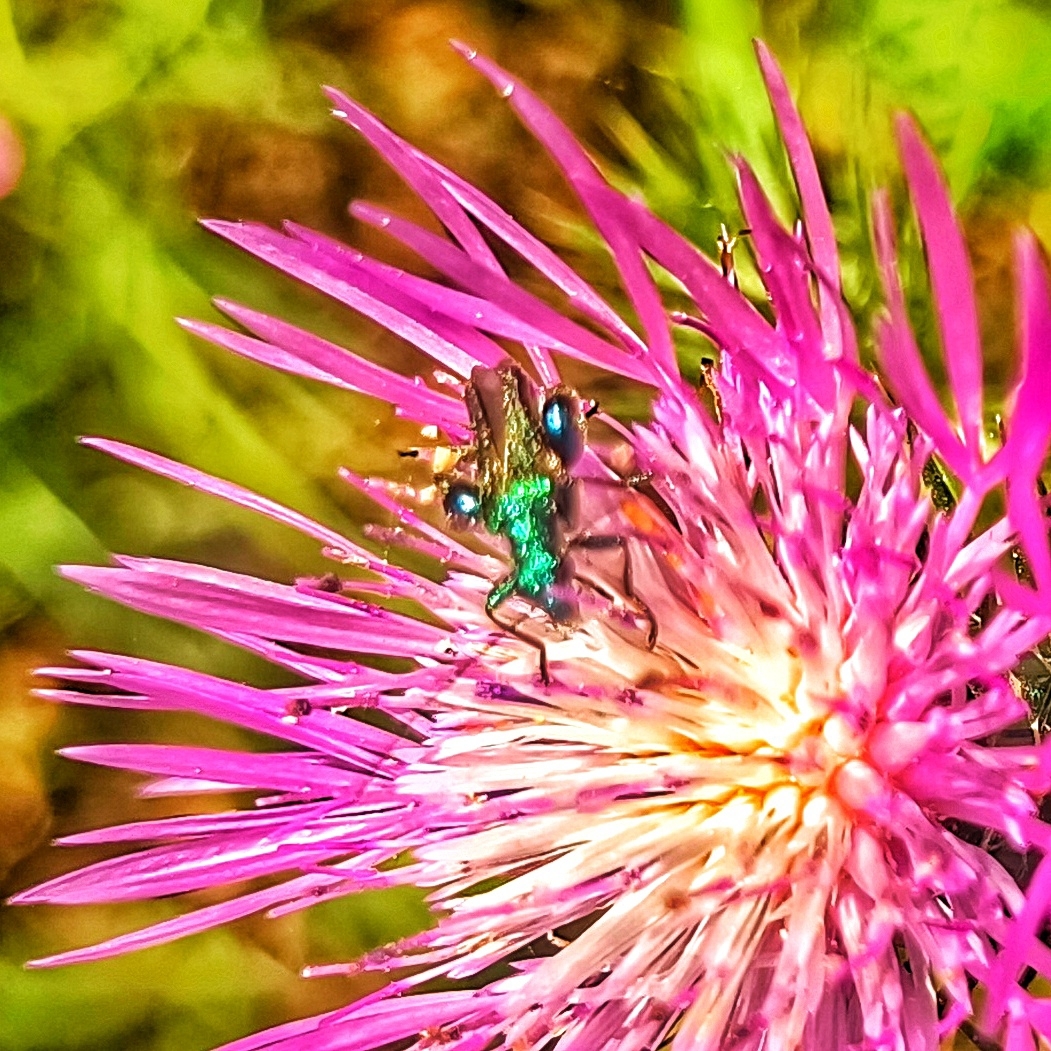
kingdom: Animalia
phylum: Arthropoda
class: Insecta
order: Coleoptera
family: Oedemeridae
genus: Oedemera
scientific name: Oedemera nobilis
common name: Swollen-thighed beetle
